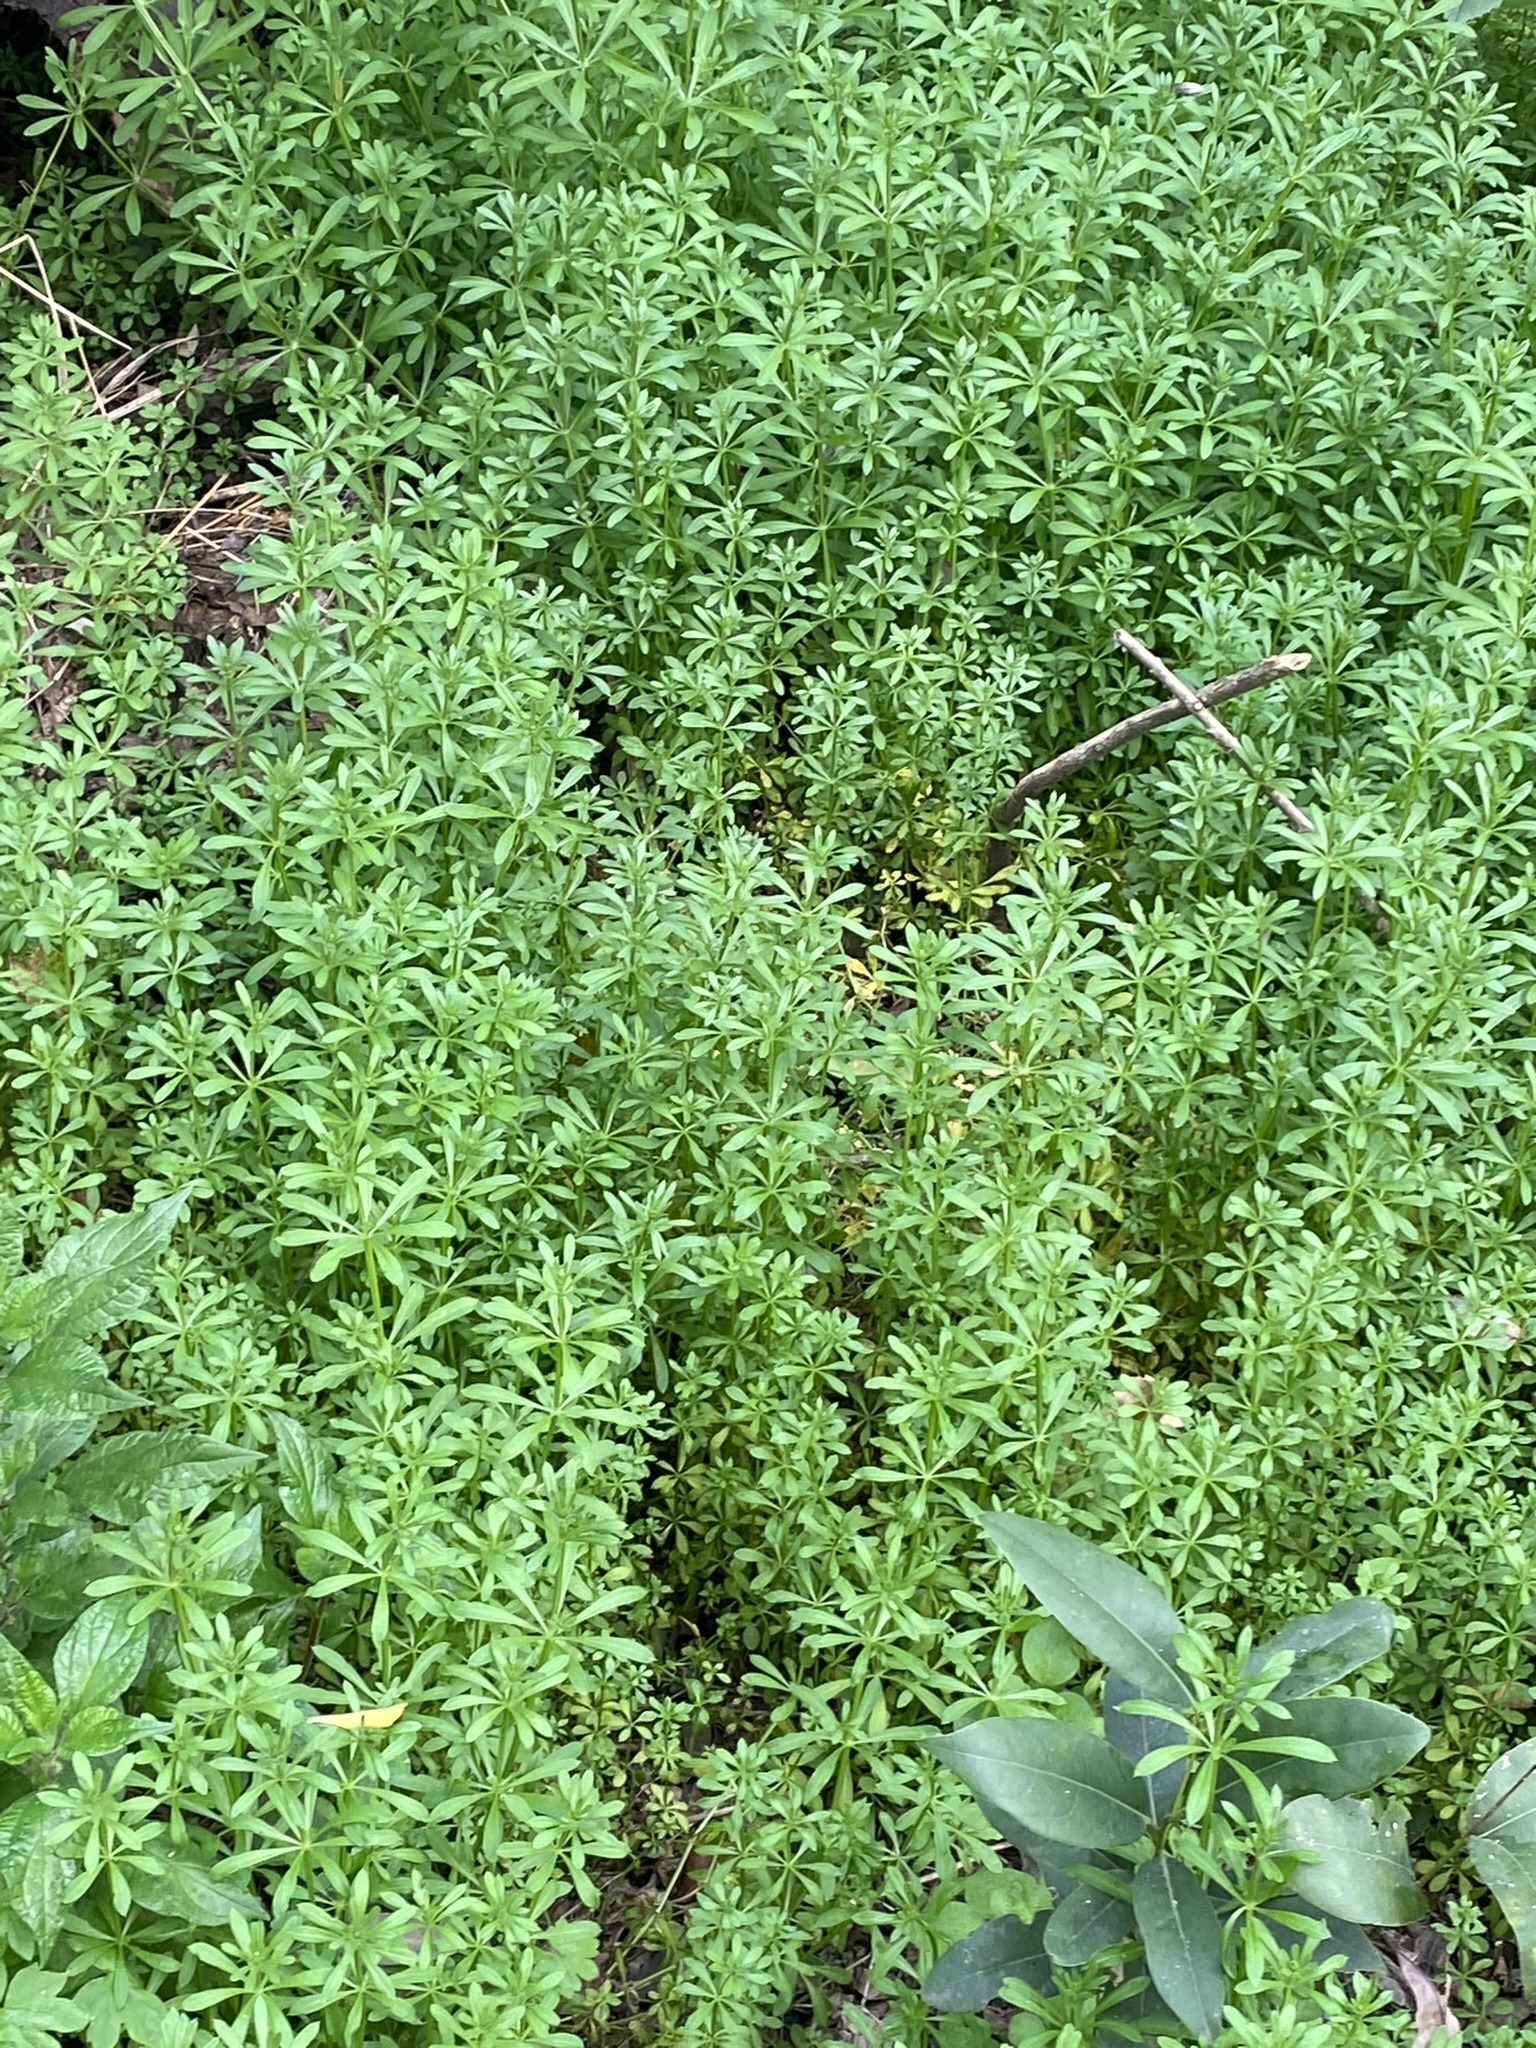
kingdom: Plantae
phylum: Tracheophyta
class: Magnoliopsida
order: Gentianales
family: Rubiaceae
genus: Galium
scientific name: Galium aparine
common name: Cleavers
